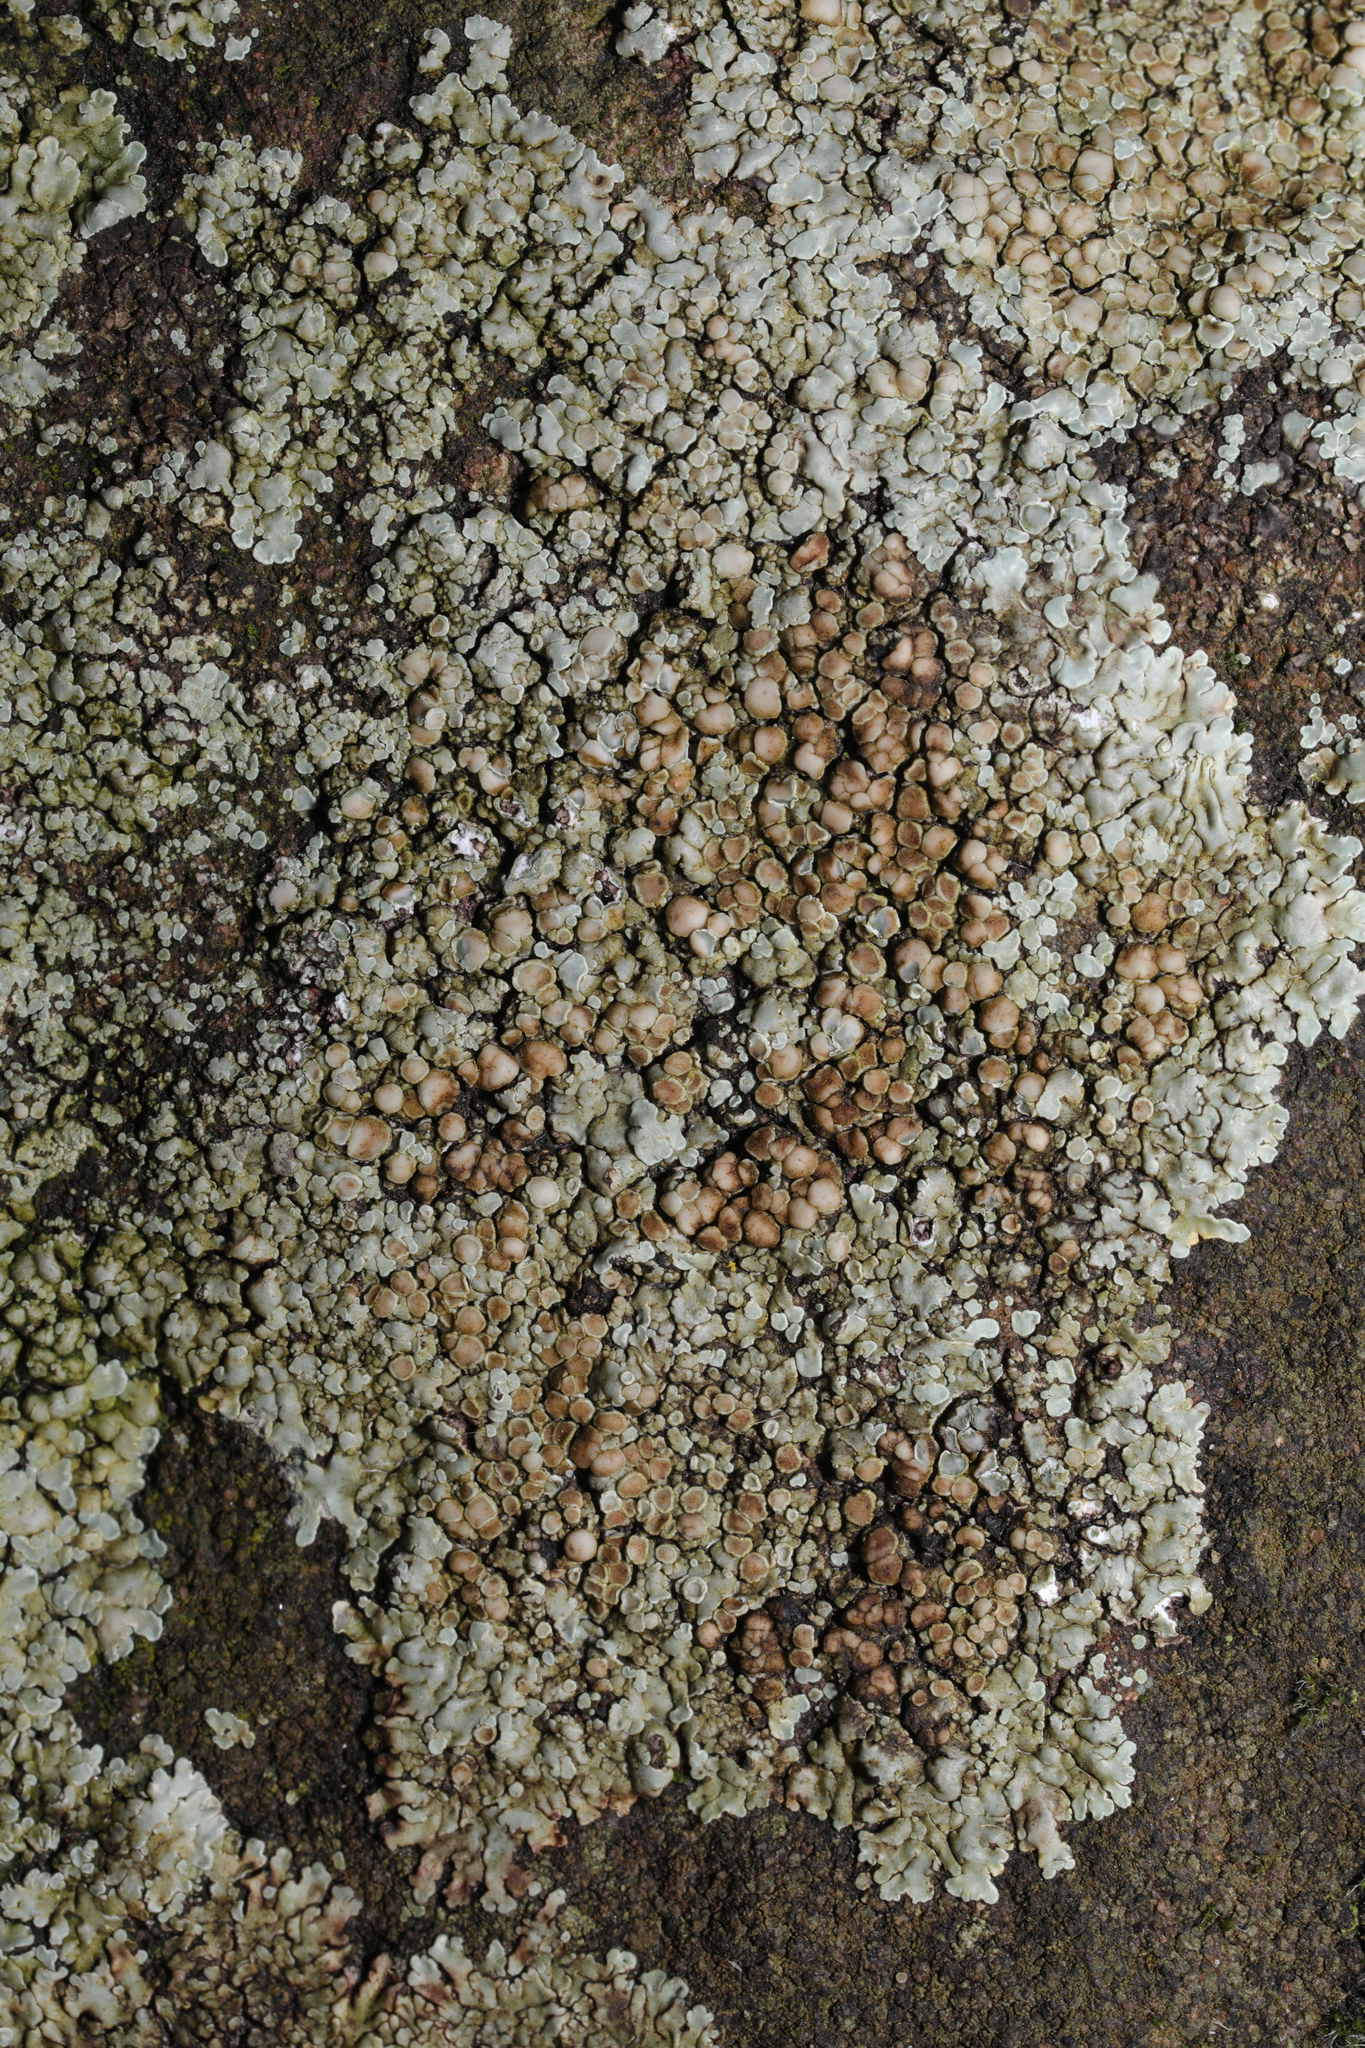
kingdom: Fungi
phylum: Ascomycota
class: Lecanoromycetes
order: Lecanorales
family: Lecanoraceae
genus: Protoparmeliopsis
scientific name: Protoparmeliopsis muralis
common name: Stonewall rim lichen
